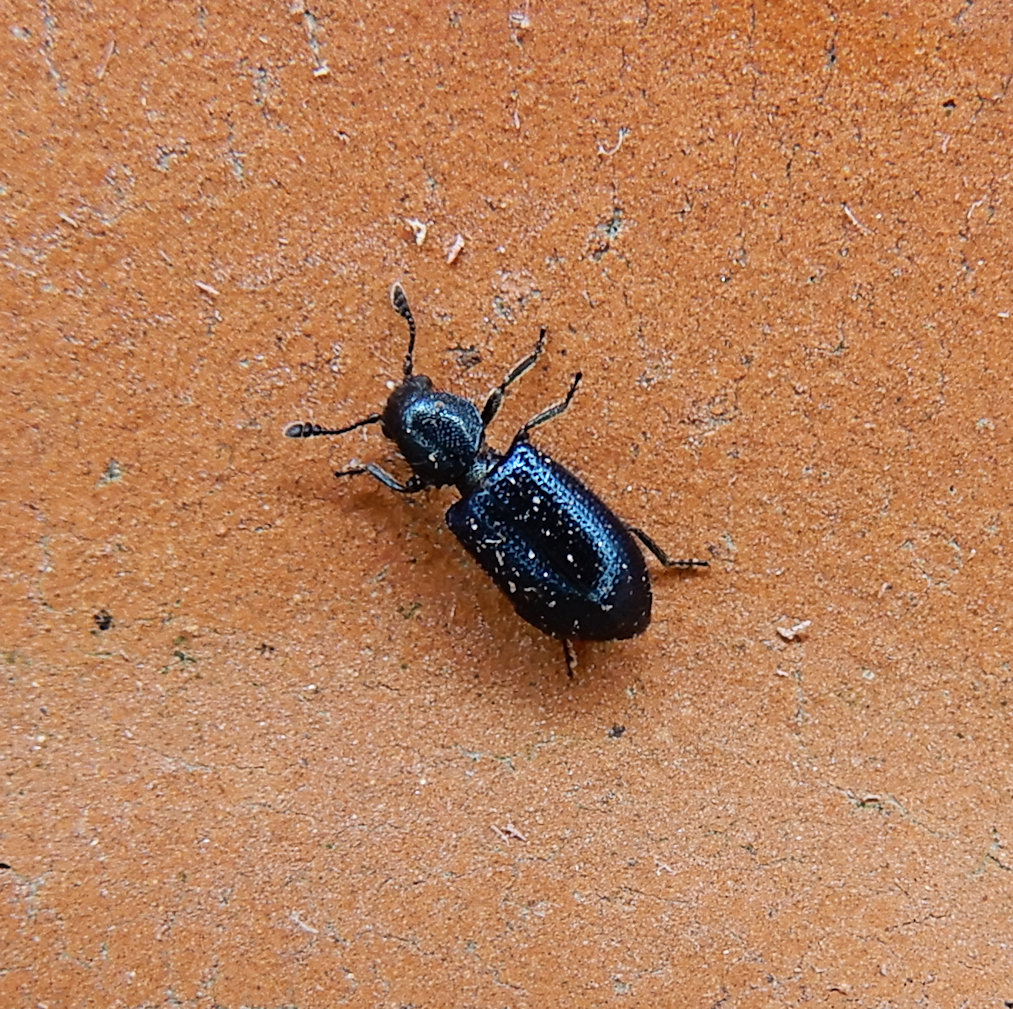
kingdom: Animalia
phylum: Arthropoda
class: Insecta
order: Coleoptera
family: Cleridae
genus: Necrobia
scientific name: Necrobia violacea
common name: Violet checkered beetle
